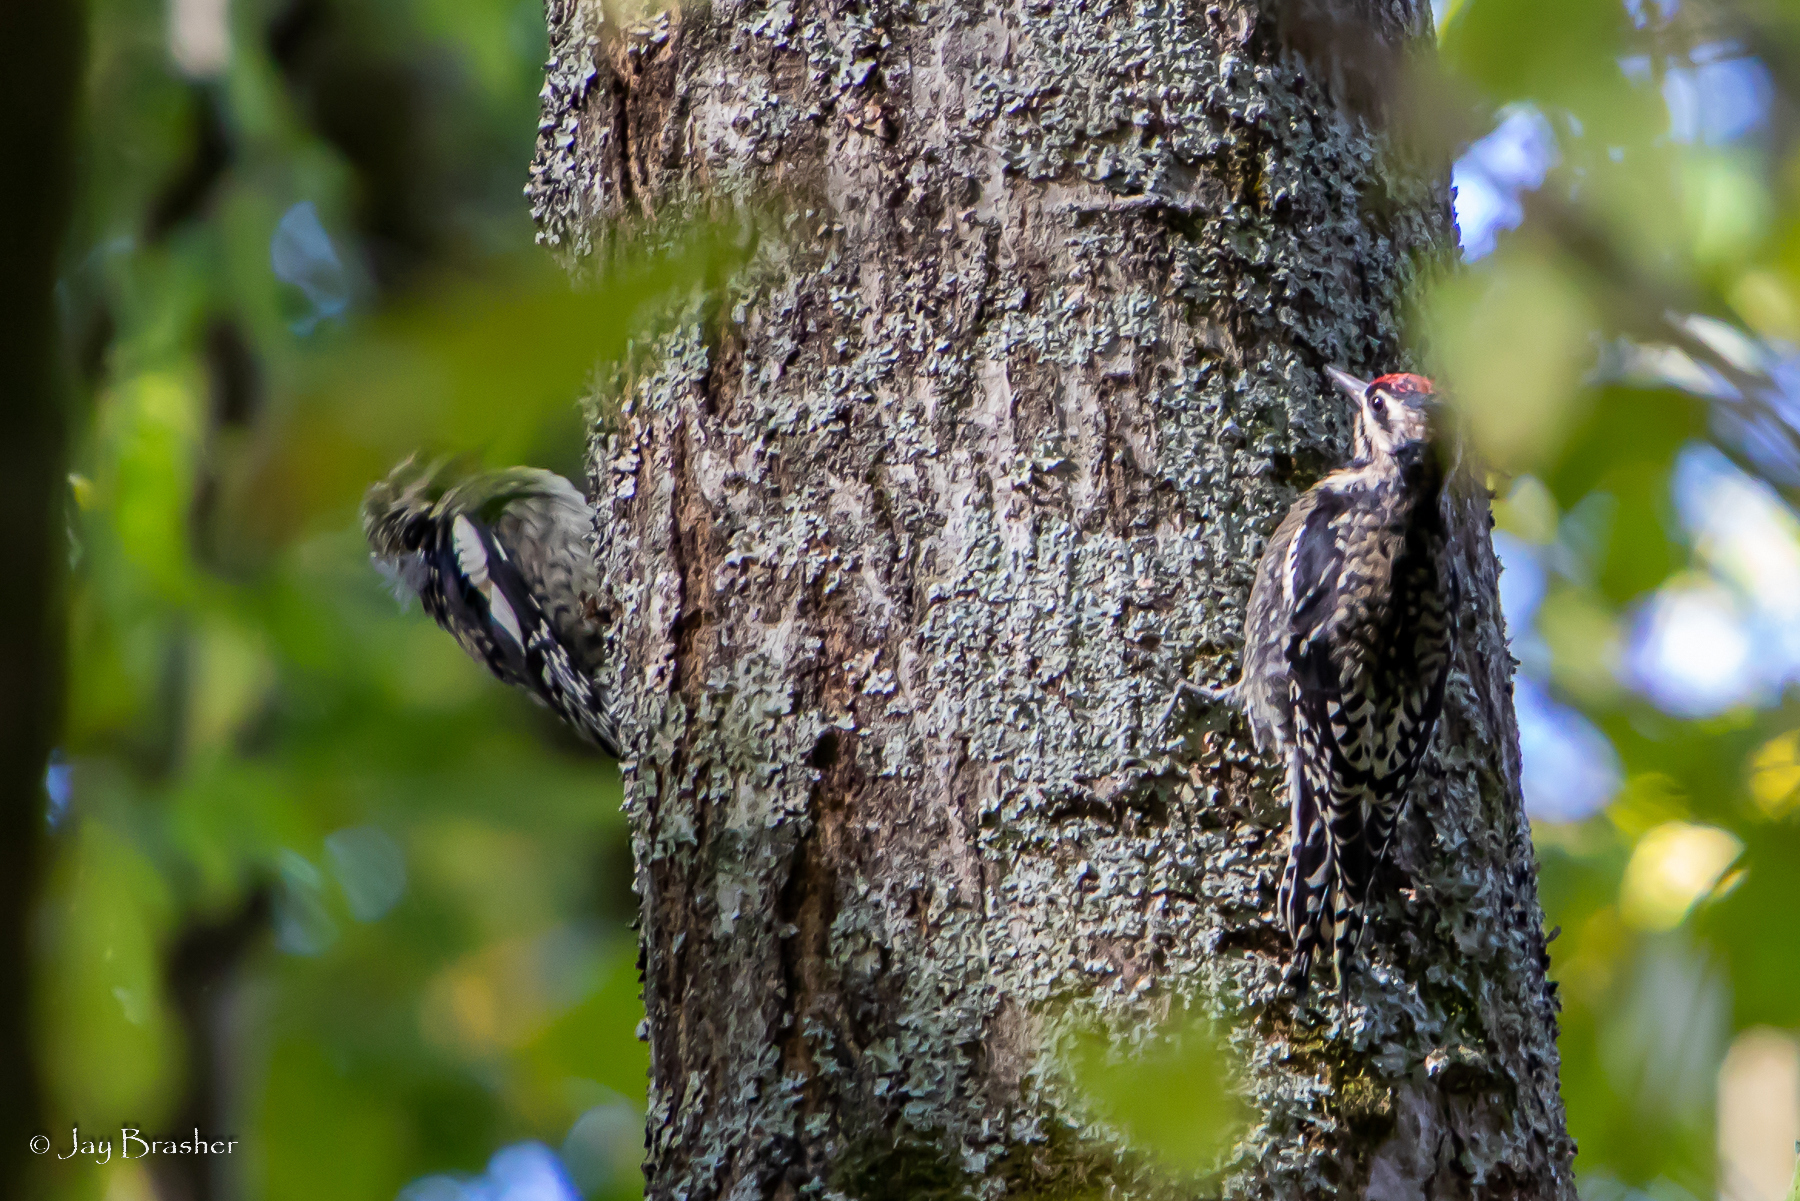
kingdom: Animalia
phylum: Chordata
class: Aves
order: Piciformes
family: Picidae
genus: Sphyrapicus
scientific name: Sphyrapicus varius
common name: Yellow-bellied sapsucker
